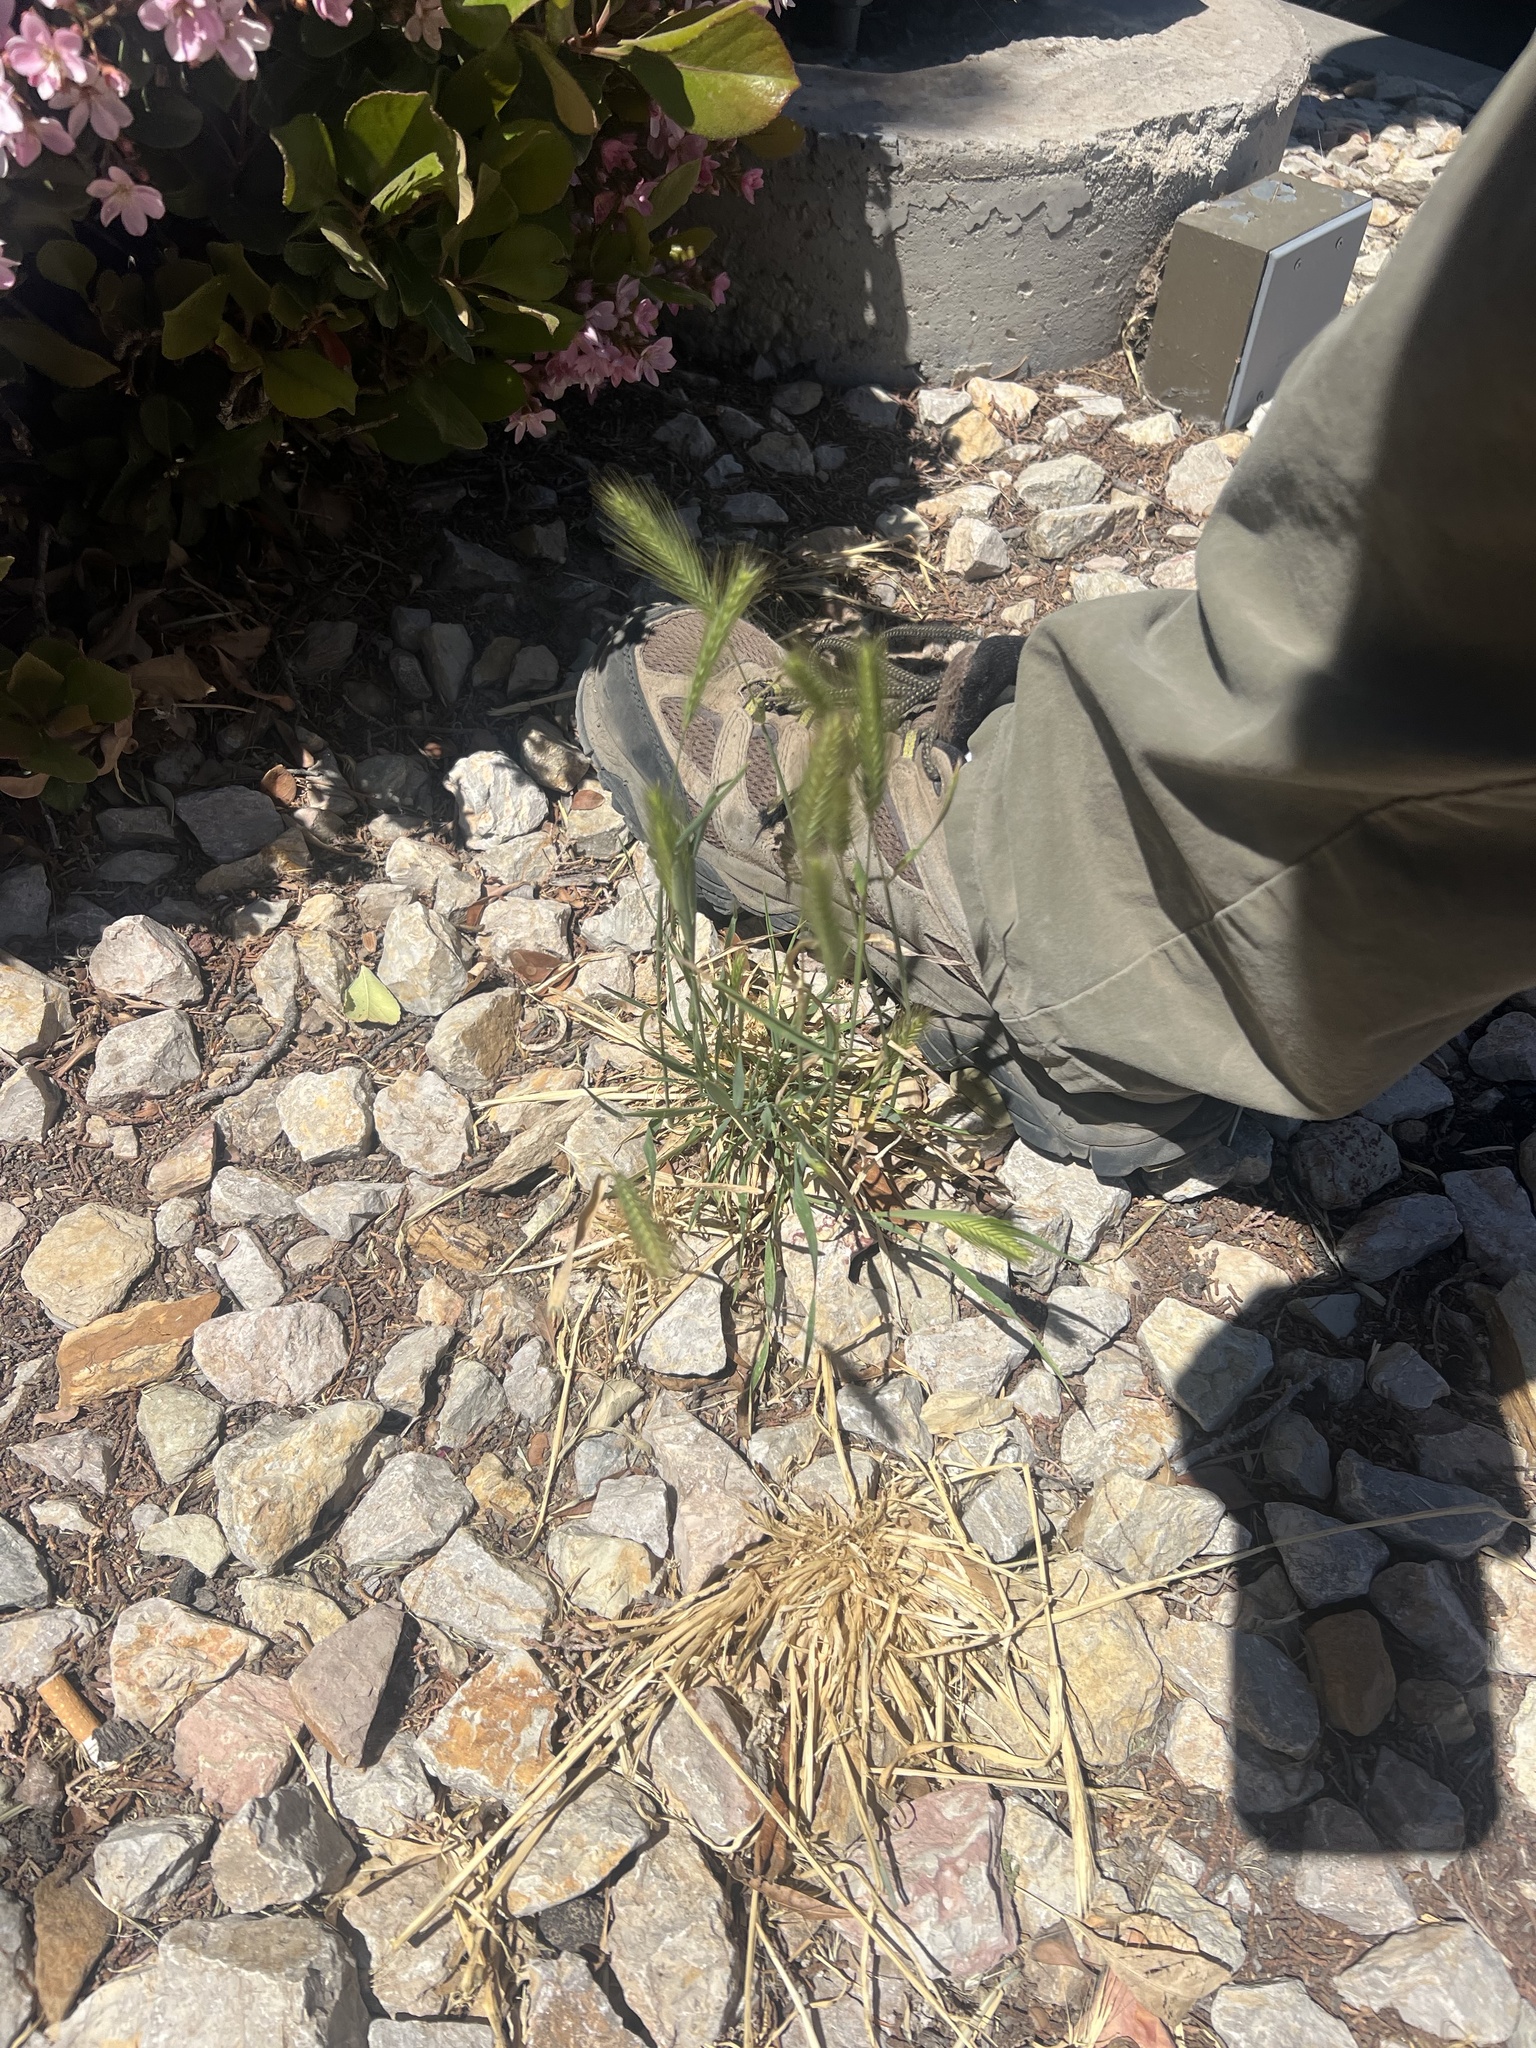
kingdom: Plantae
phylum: Tracheophyta
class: Liliopsida
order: Poales
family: Poaceae
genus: Hordeum
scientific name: Hordeum murinum
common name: Wall barley
